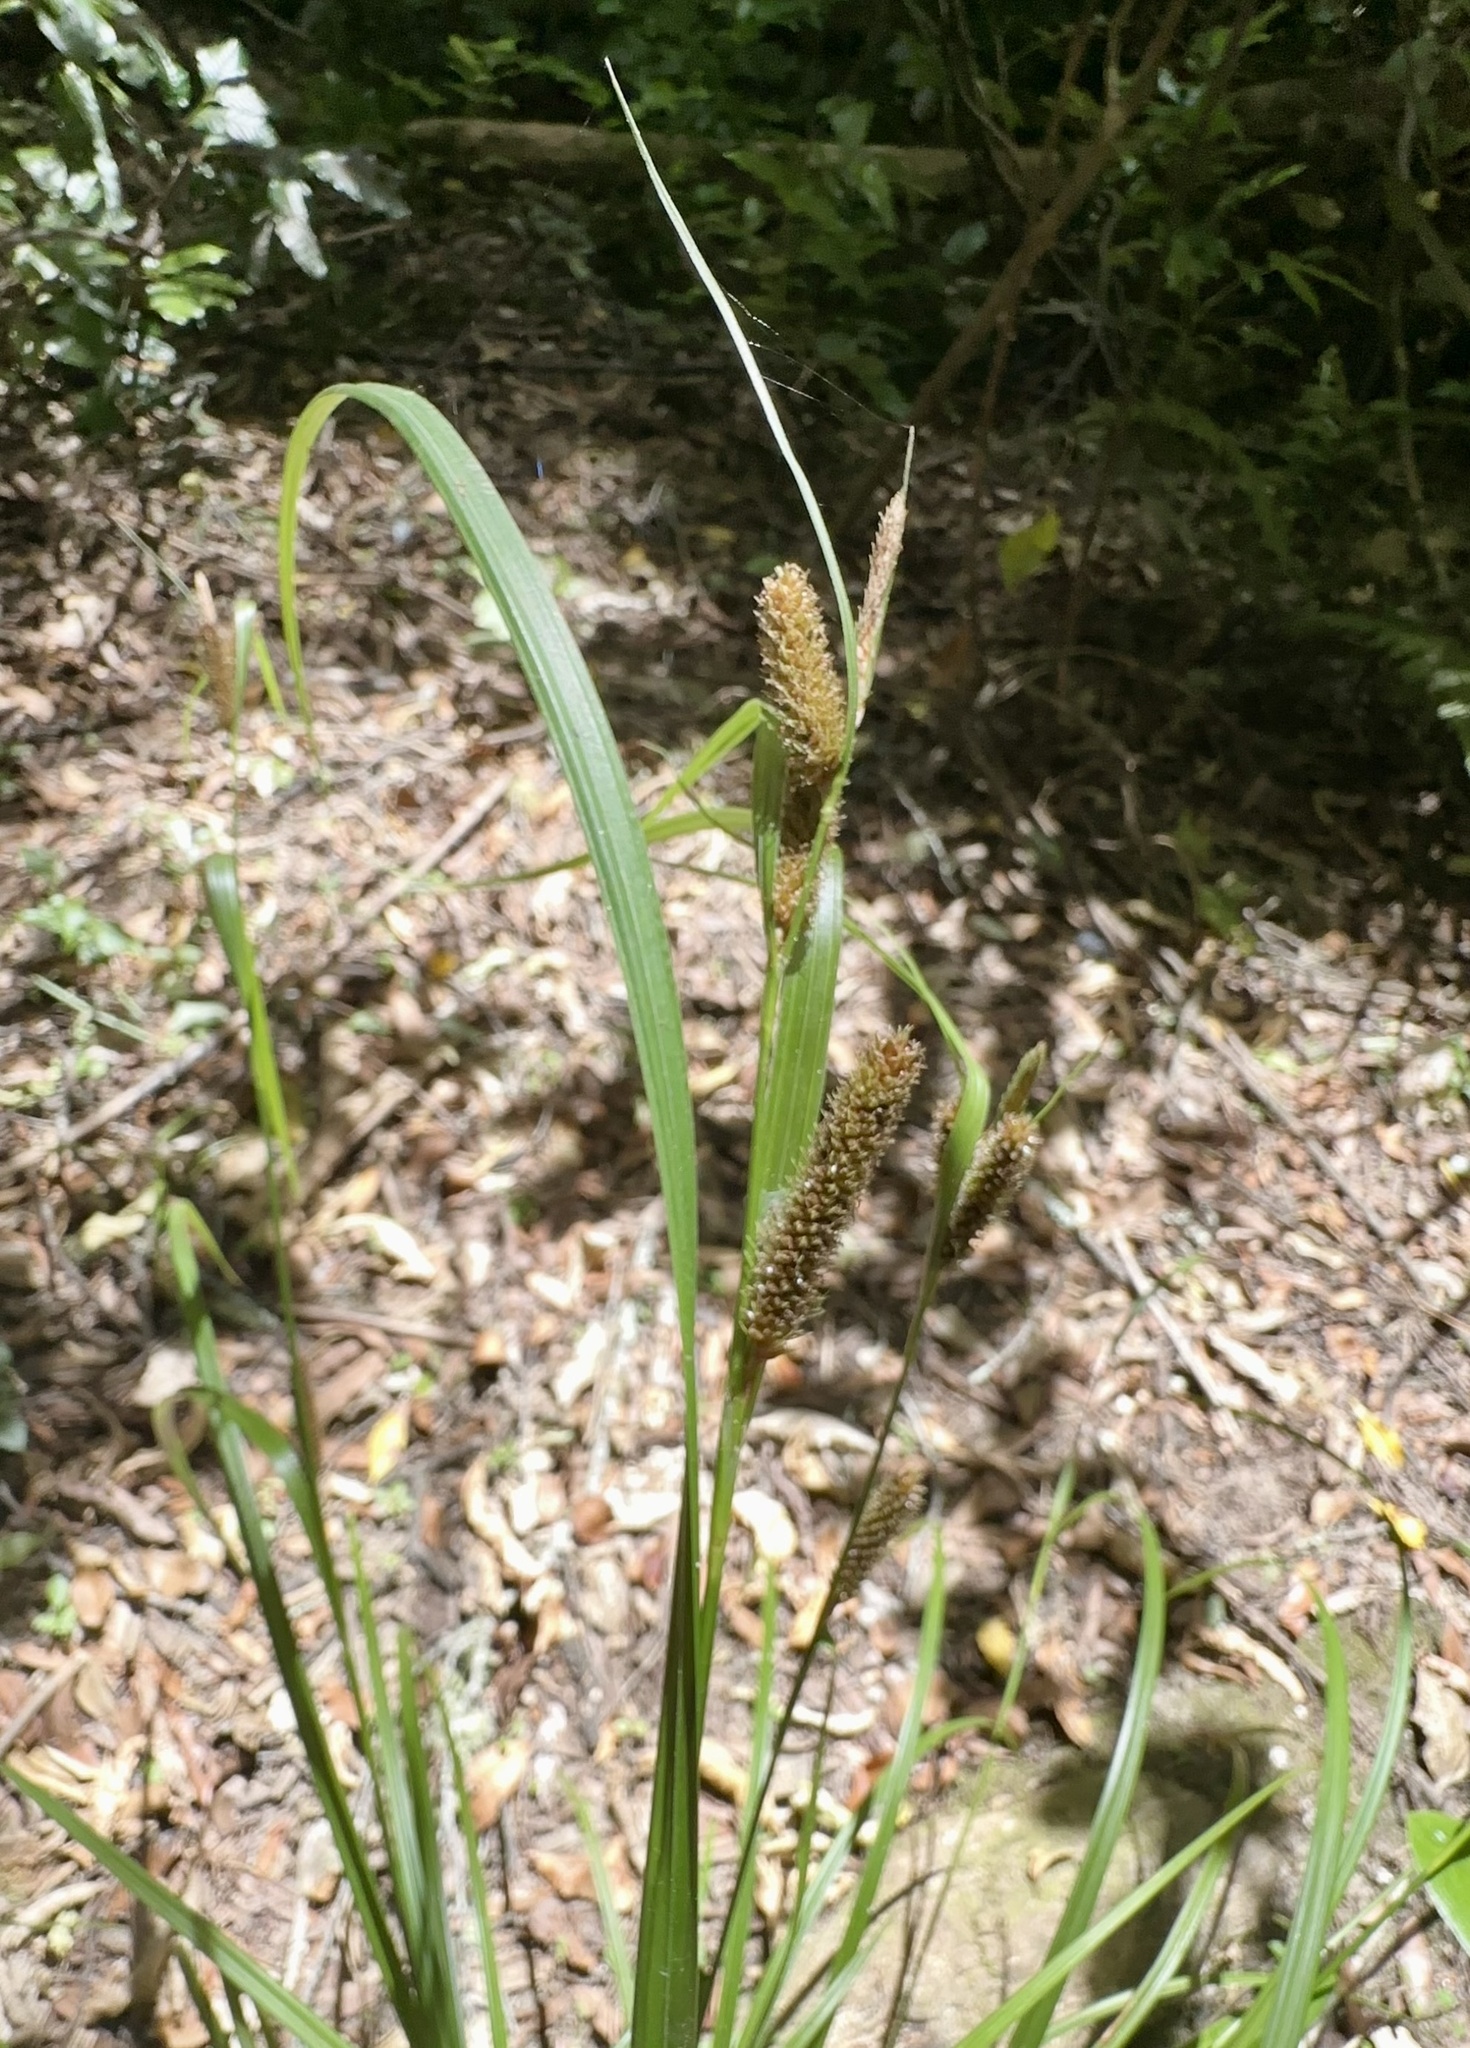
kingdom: Plantae
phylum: Tracheophyta
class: Liliopsida
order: Poales
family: Cyperaceae
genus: Carex
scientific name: Carex lambertiana
